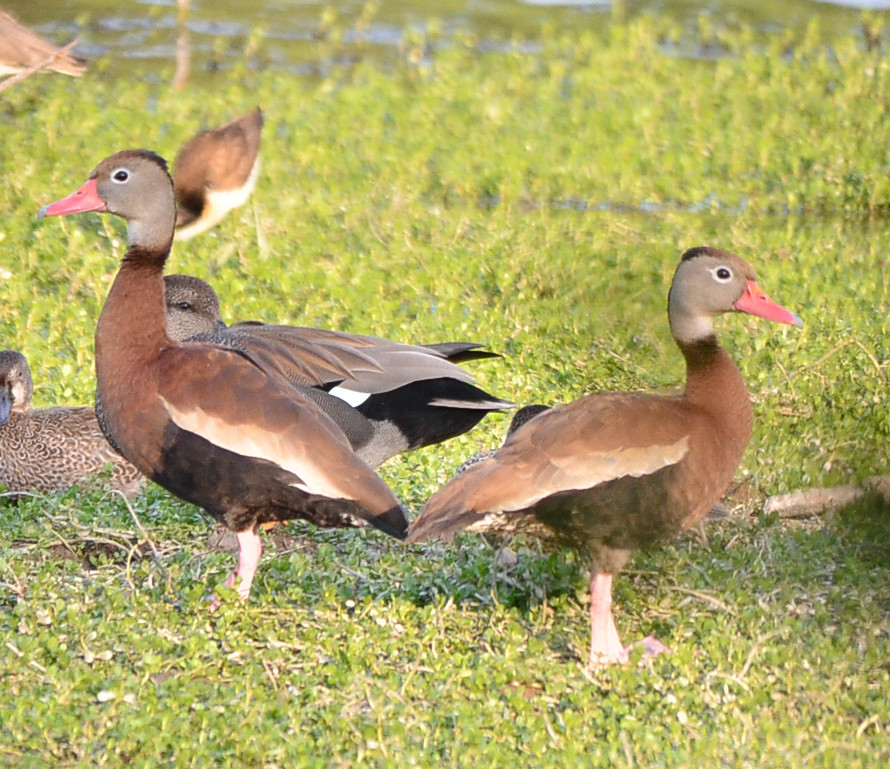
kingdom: Animalia
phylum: Chordata
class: Aves
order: Anseriformes
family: Anatidae
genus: Dendrocygna
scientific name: Dendrocygna autumnalis
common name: Black-bellied whistling duck
